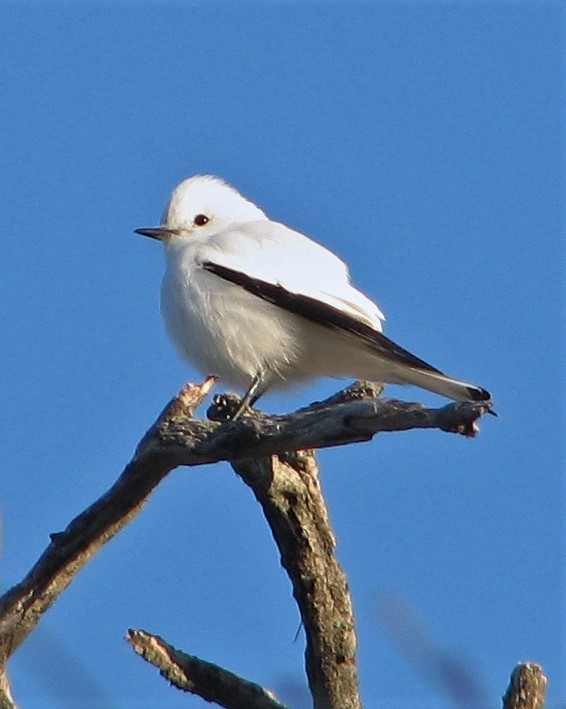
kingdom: Animalia
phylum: Chordata
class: Aves
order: Passeriformes
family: Tyrannidae
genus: Xolmis
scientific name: Xolmis irupero
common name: White monjita
